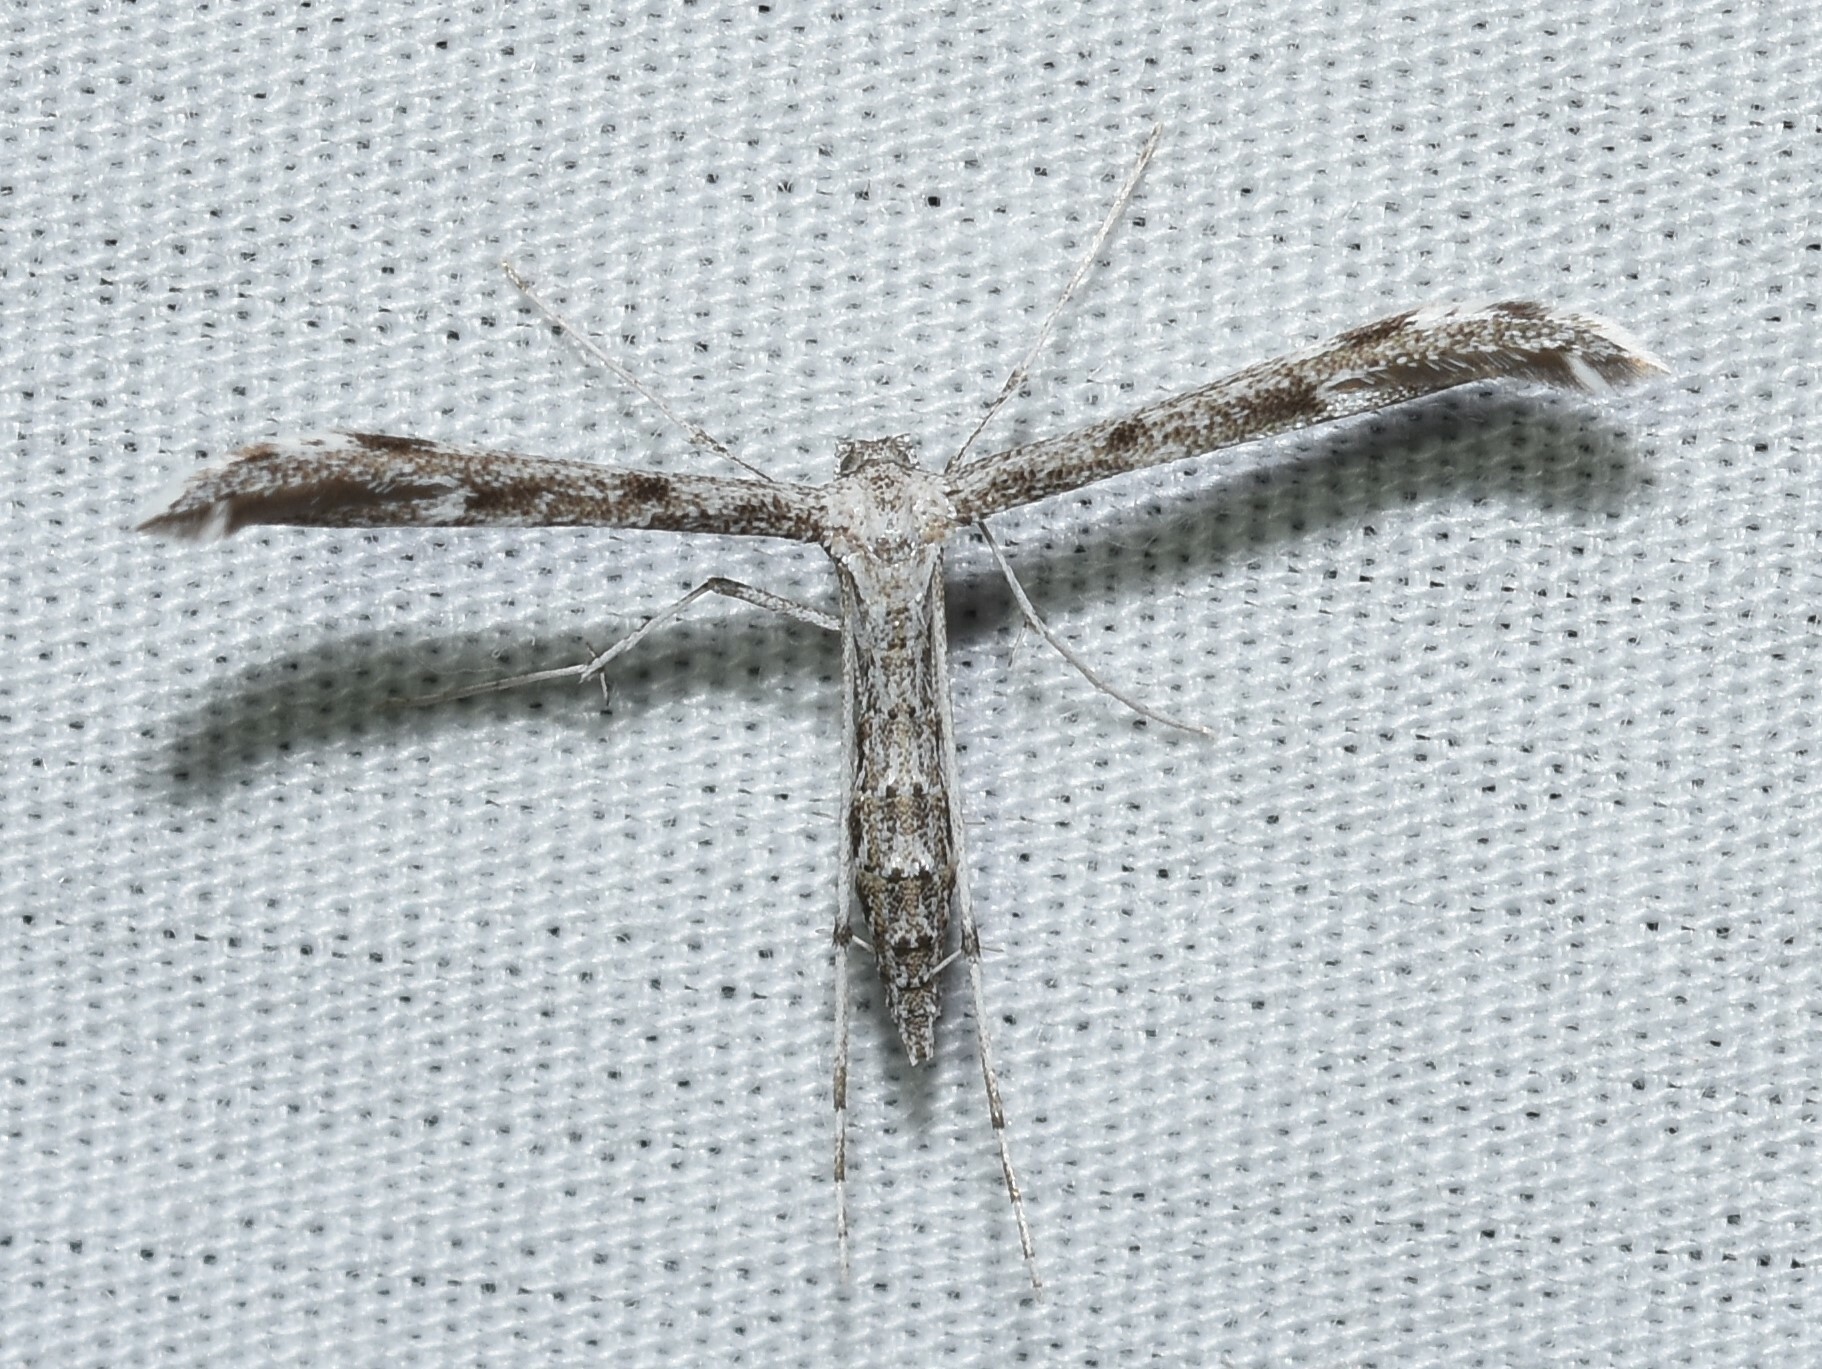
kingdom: Animalia
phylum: Arthropoda
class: Insecta
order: Lepidoptera
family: Pterophoridae
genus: Hellinsia
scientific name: Hellinsia inquinatus
